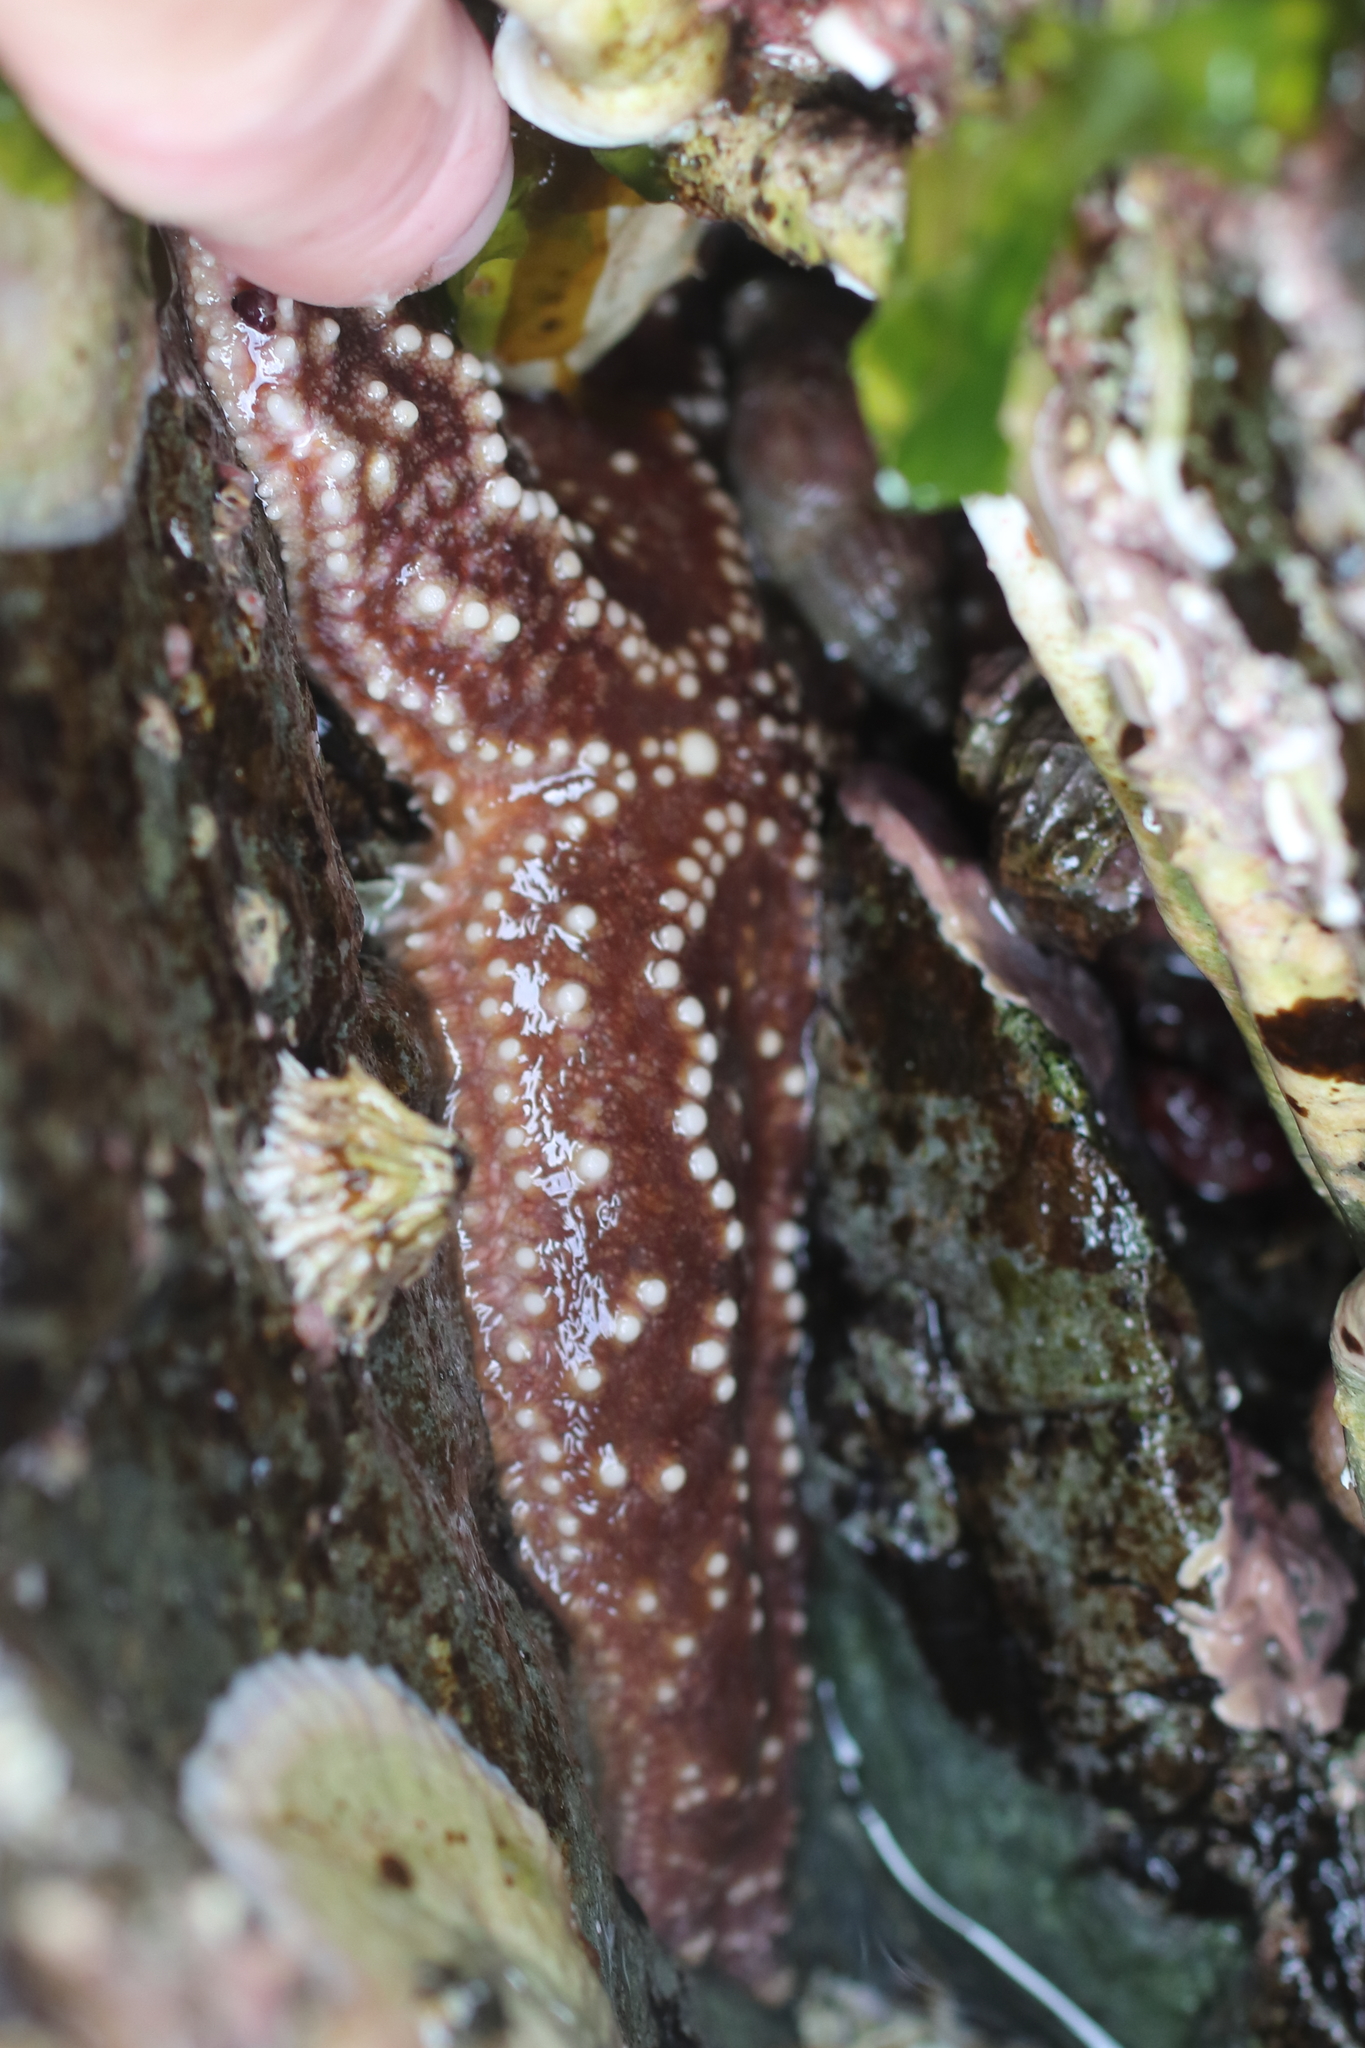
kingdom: Animalia
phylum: Echinodermata
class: Asteroidea
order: Forcipulatida
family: Asteriidae
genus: Pisaster
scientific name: Pisaster ochraceus
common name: Ochre stars
